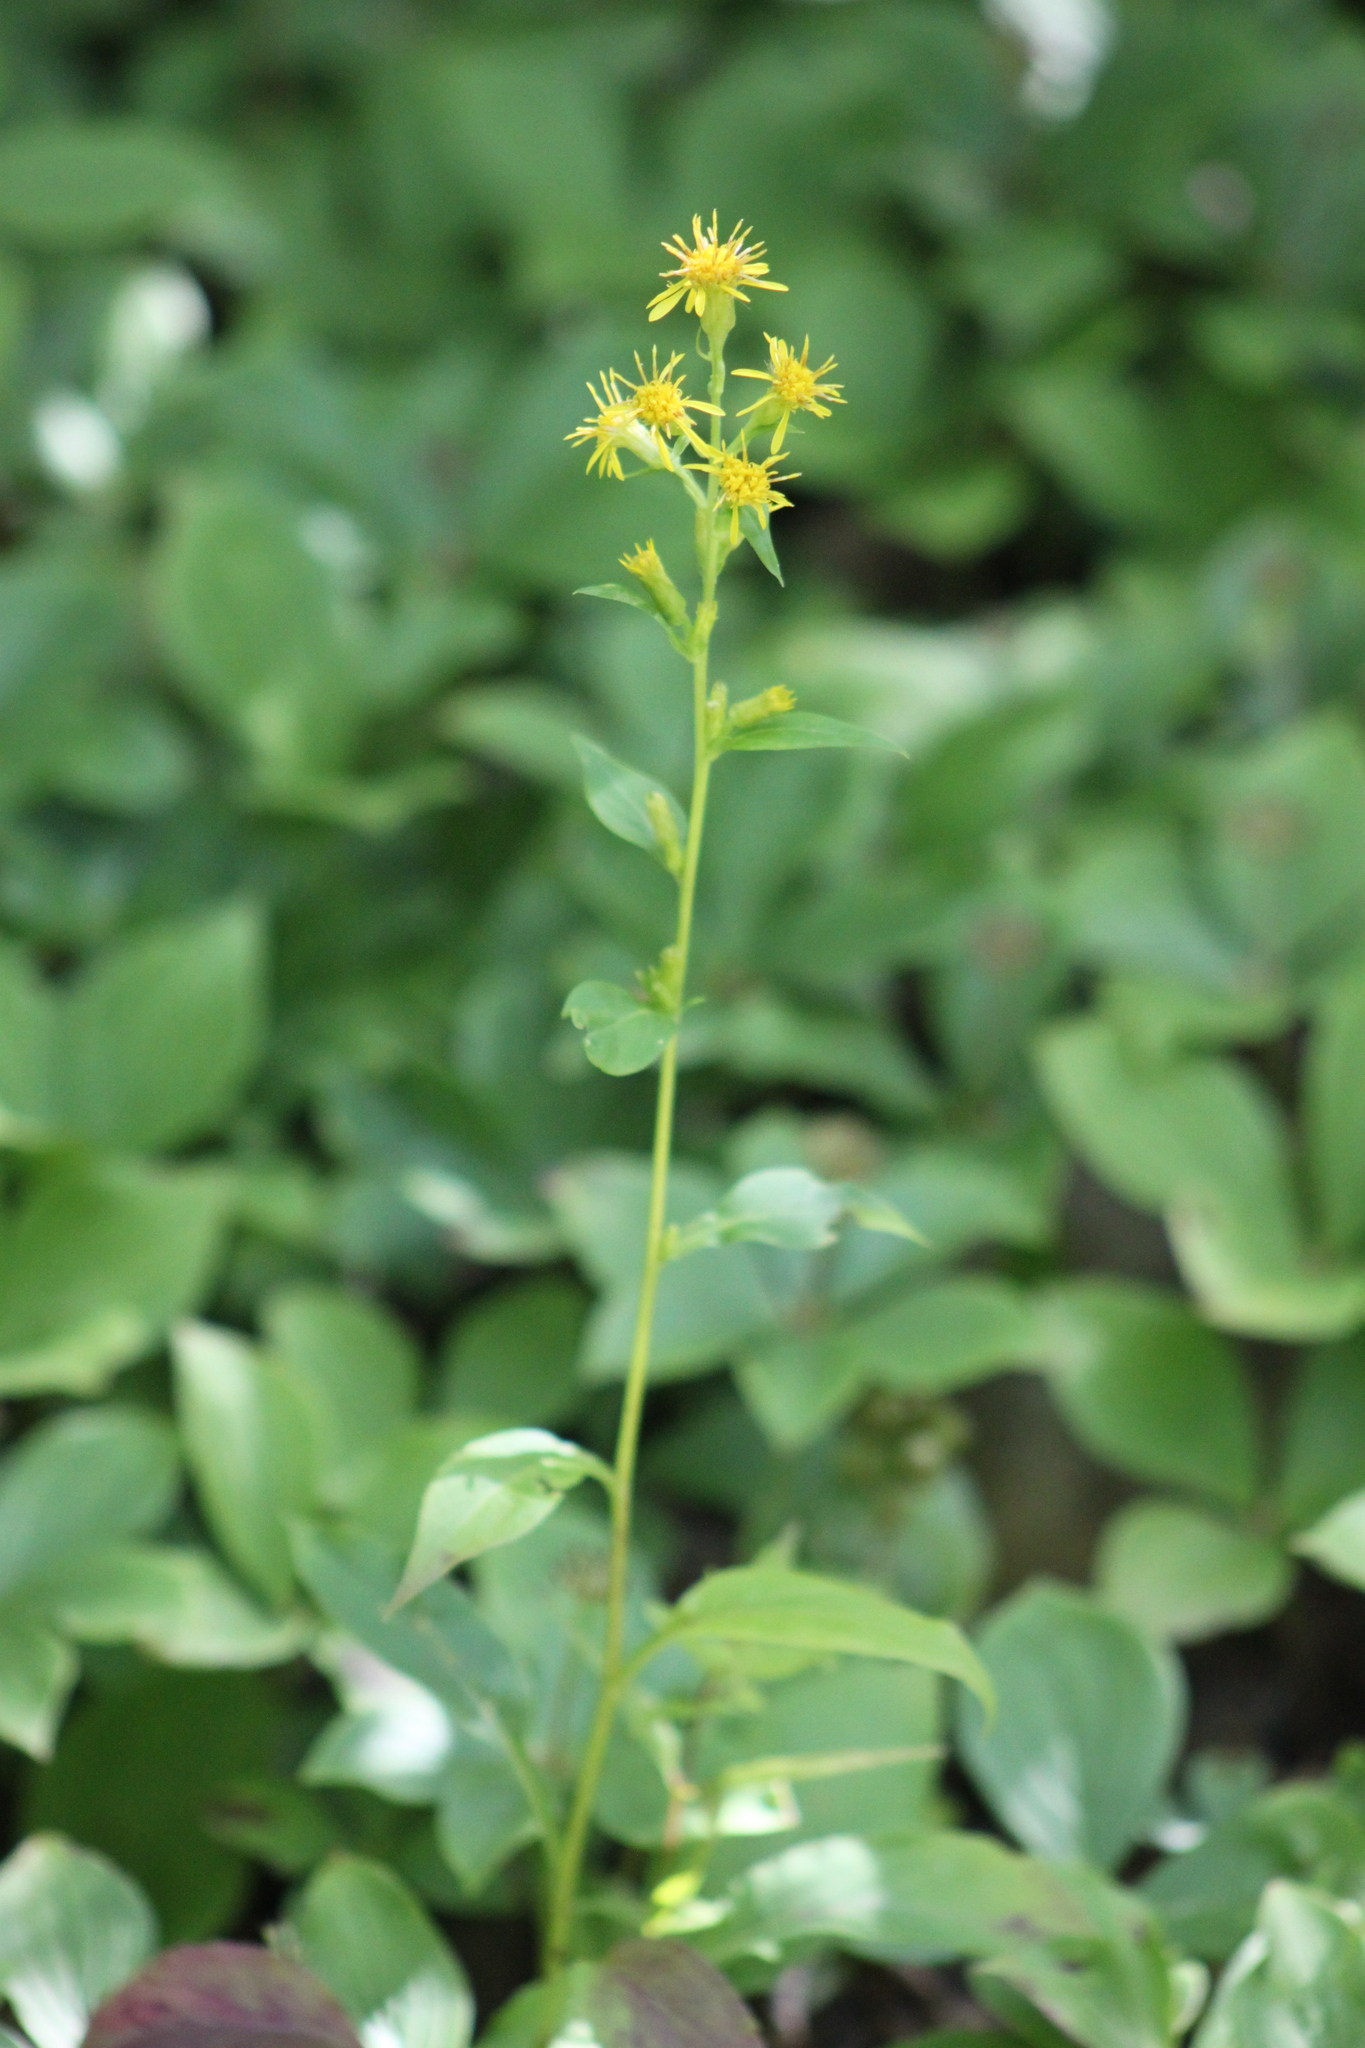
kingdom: Plantae
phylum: Tracheophyta
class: Magnoliopsida
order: Asterales
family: Asteraceae
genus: Solidago
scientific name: Solidago macrophylla
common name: Large-leaved goldenrod
